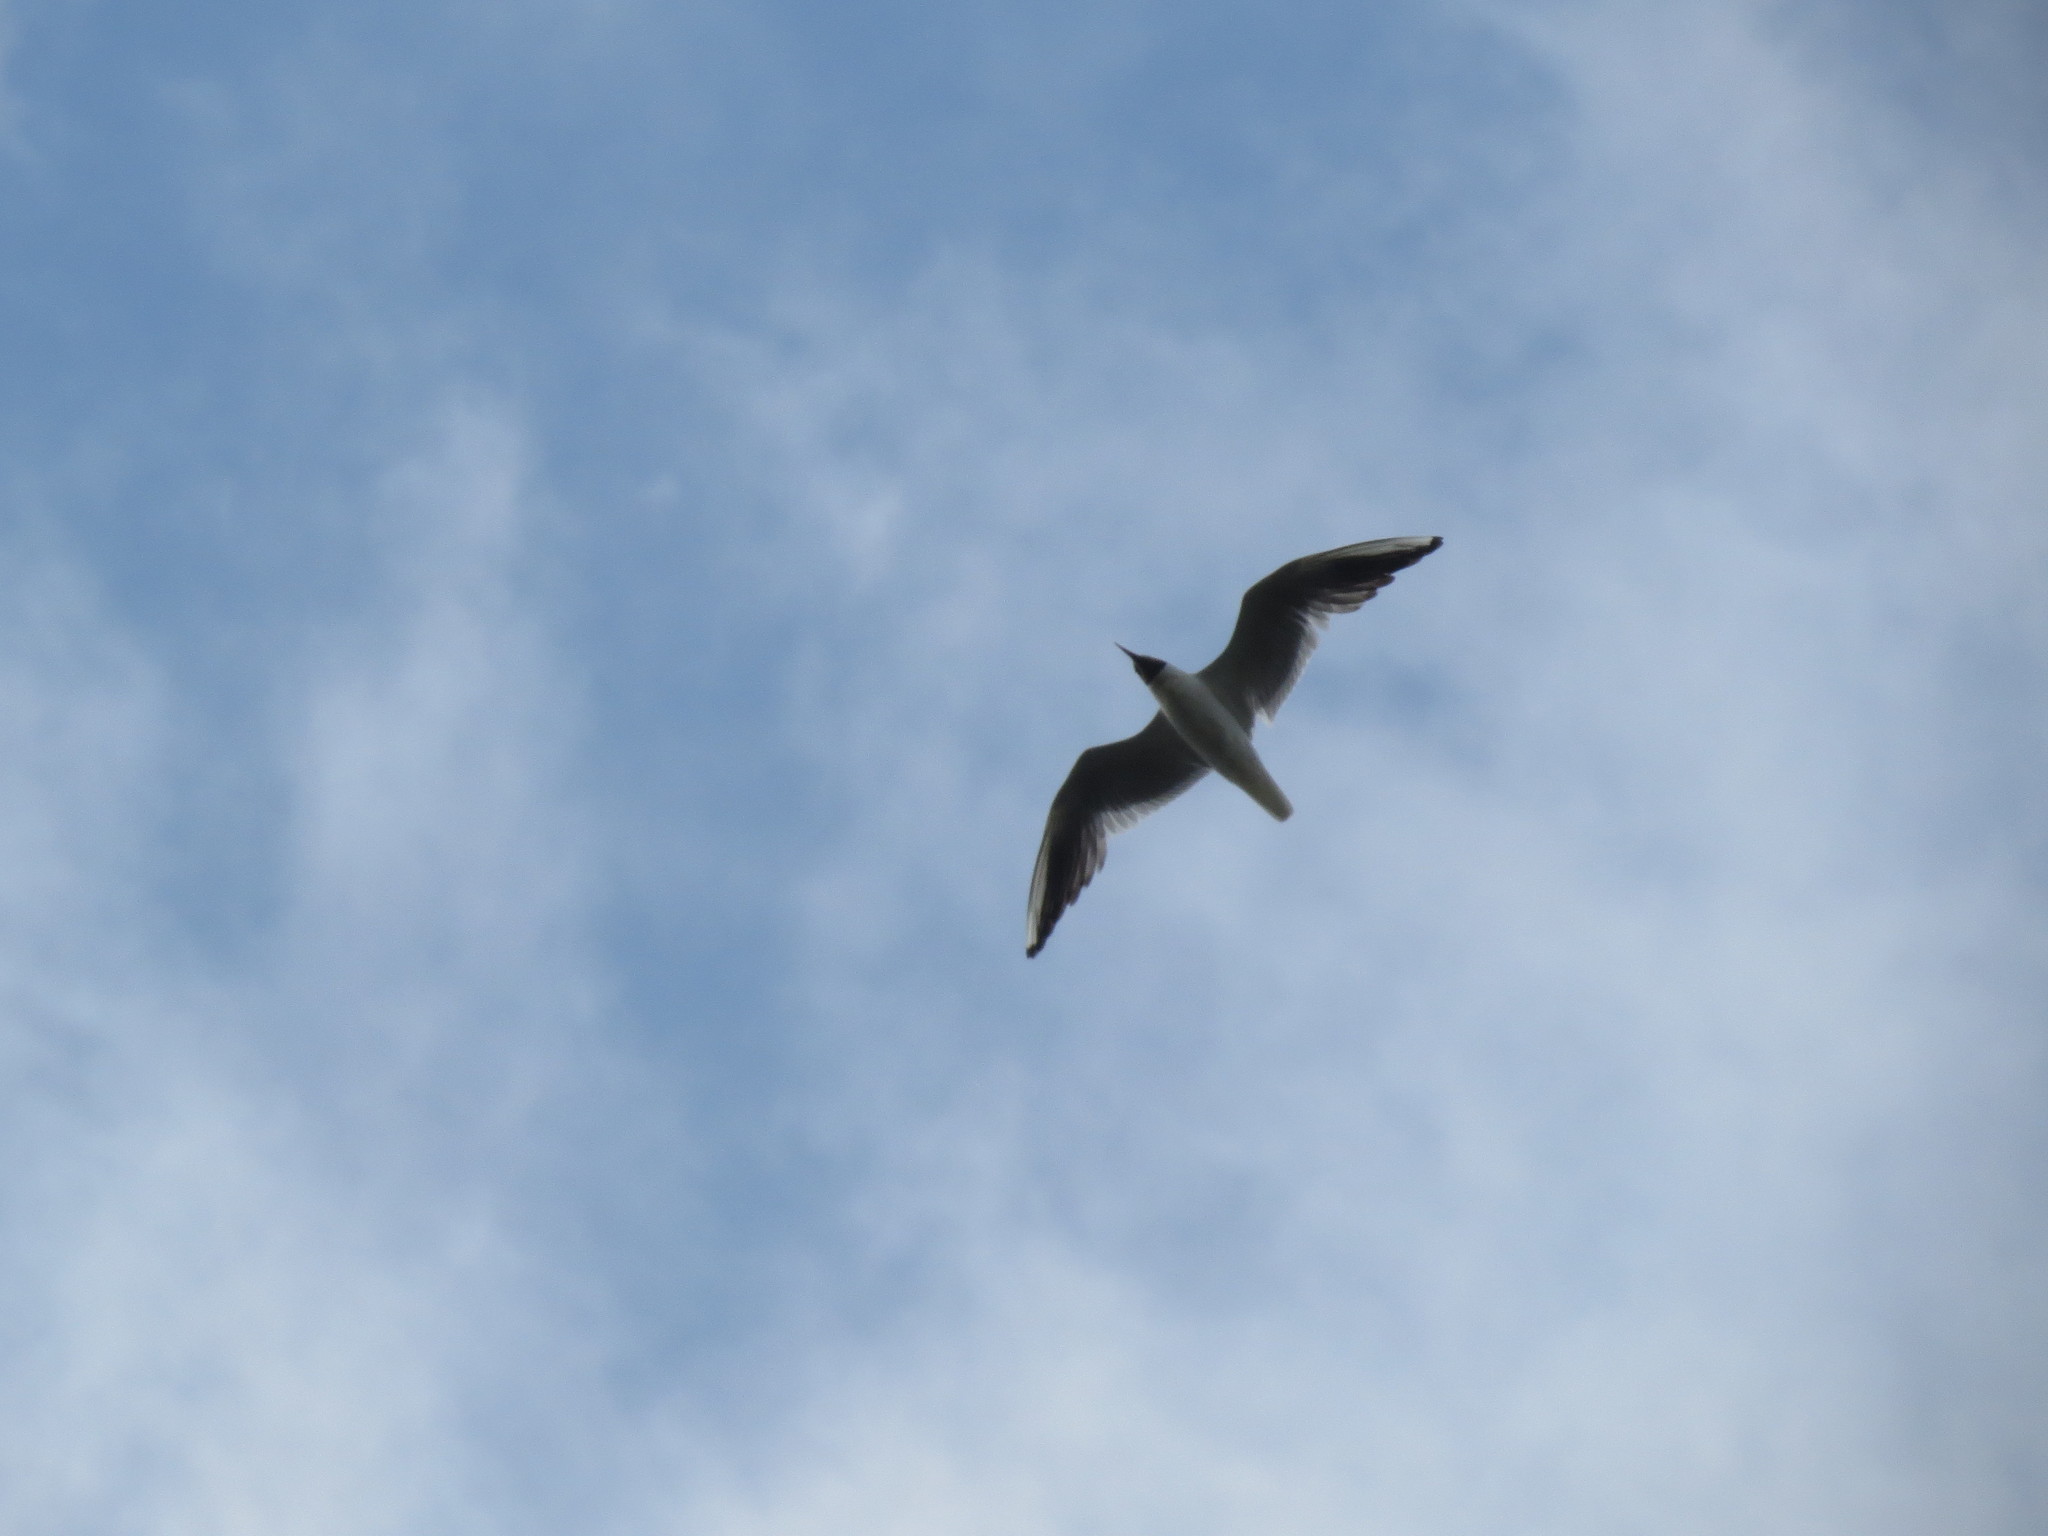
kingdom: Animalia
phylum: Chordata
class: Aves
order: Charadriiformes
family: Laridae
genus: Chroicocephalus
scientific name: Chroicocephalus ridibundus
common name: Black-headed gull
